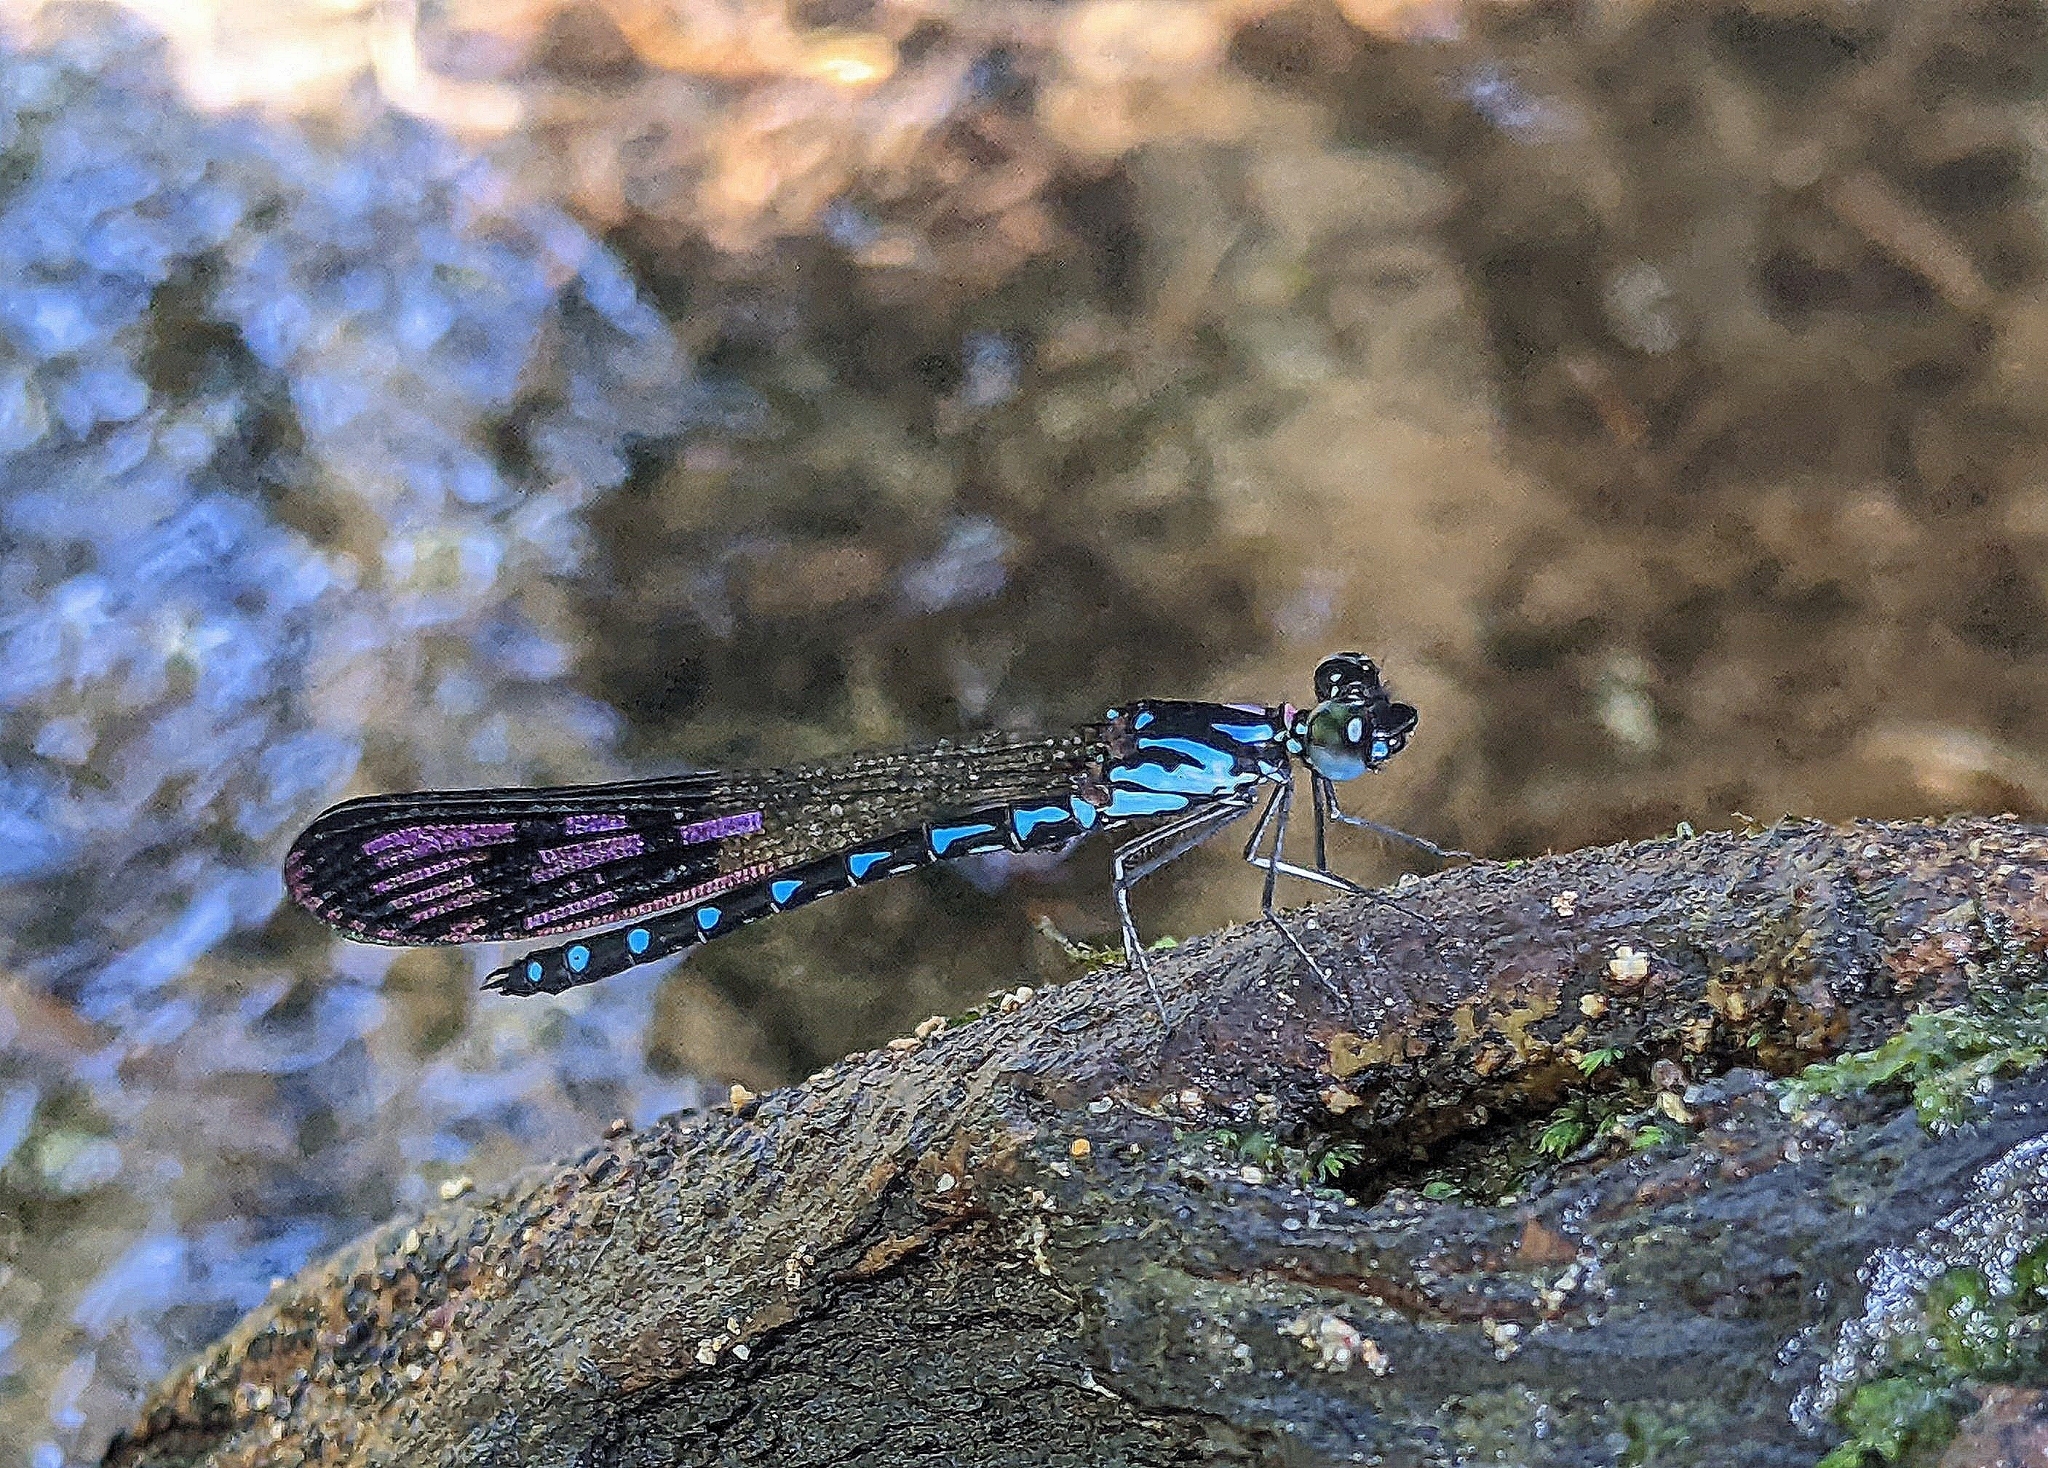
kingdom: Animalia
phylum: Arthropoda
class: Insecta
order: Odonata
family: Chlorocyphidae
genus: Heliocypha
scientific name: Heliocypha perforata
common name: Common blue jewel
